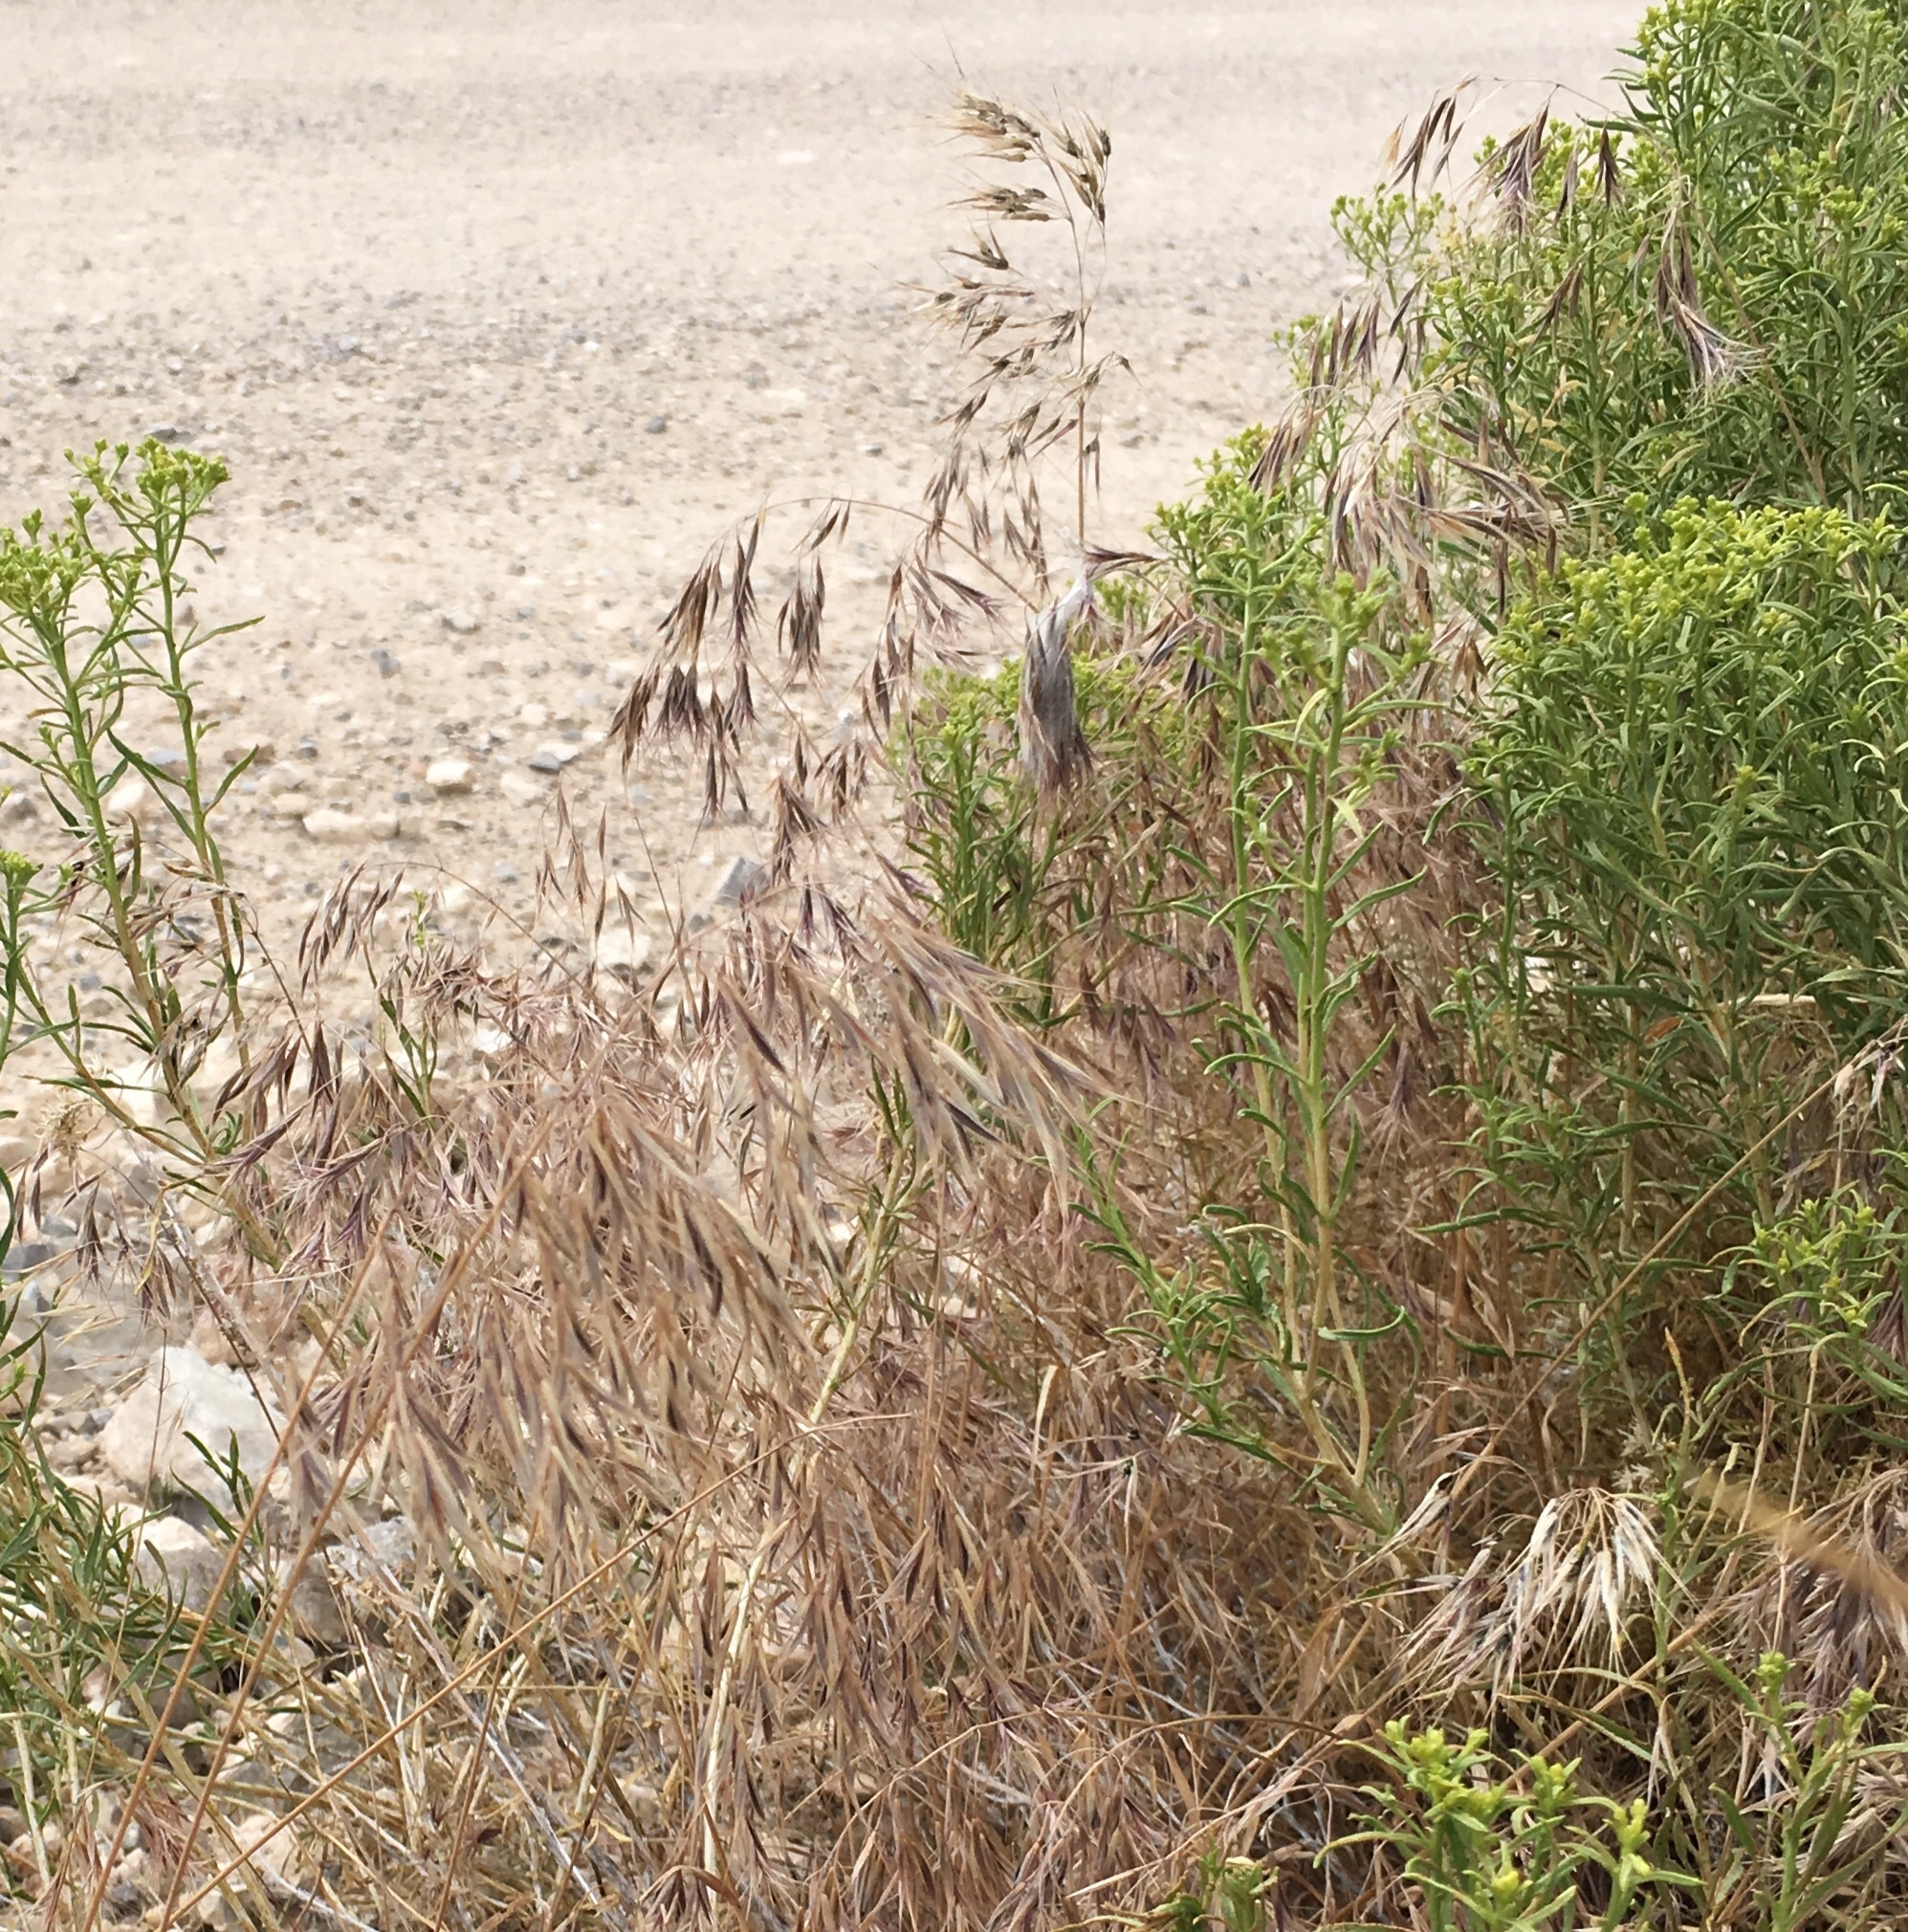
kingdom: Plantae
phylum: Tracheophyta
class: Liliopsida
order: Poales
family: Poaceae
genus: Bromus
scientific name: Bromus tectorum
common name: Cheatgrass
